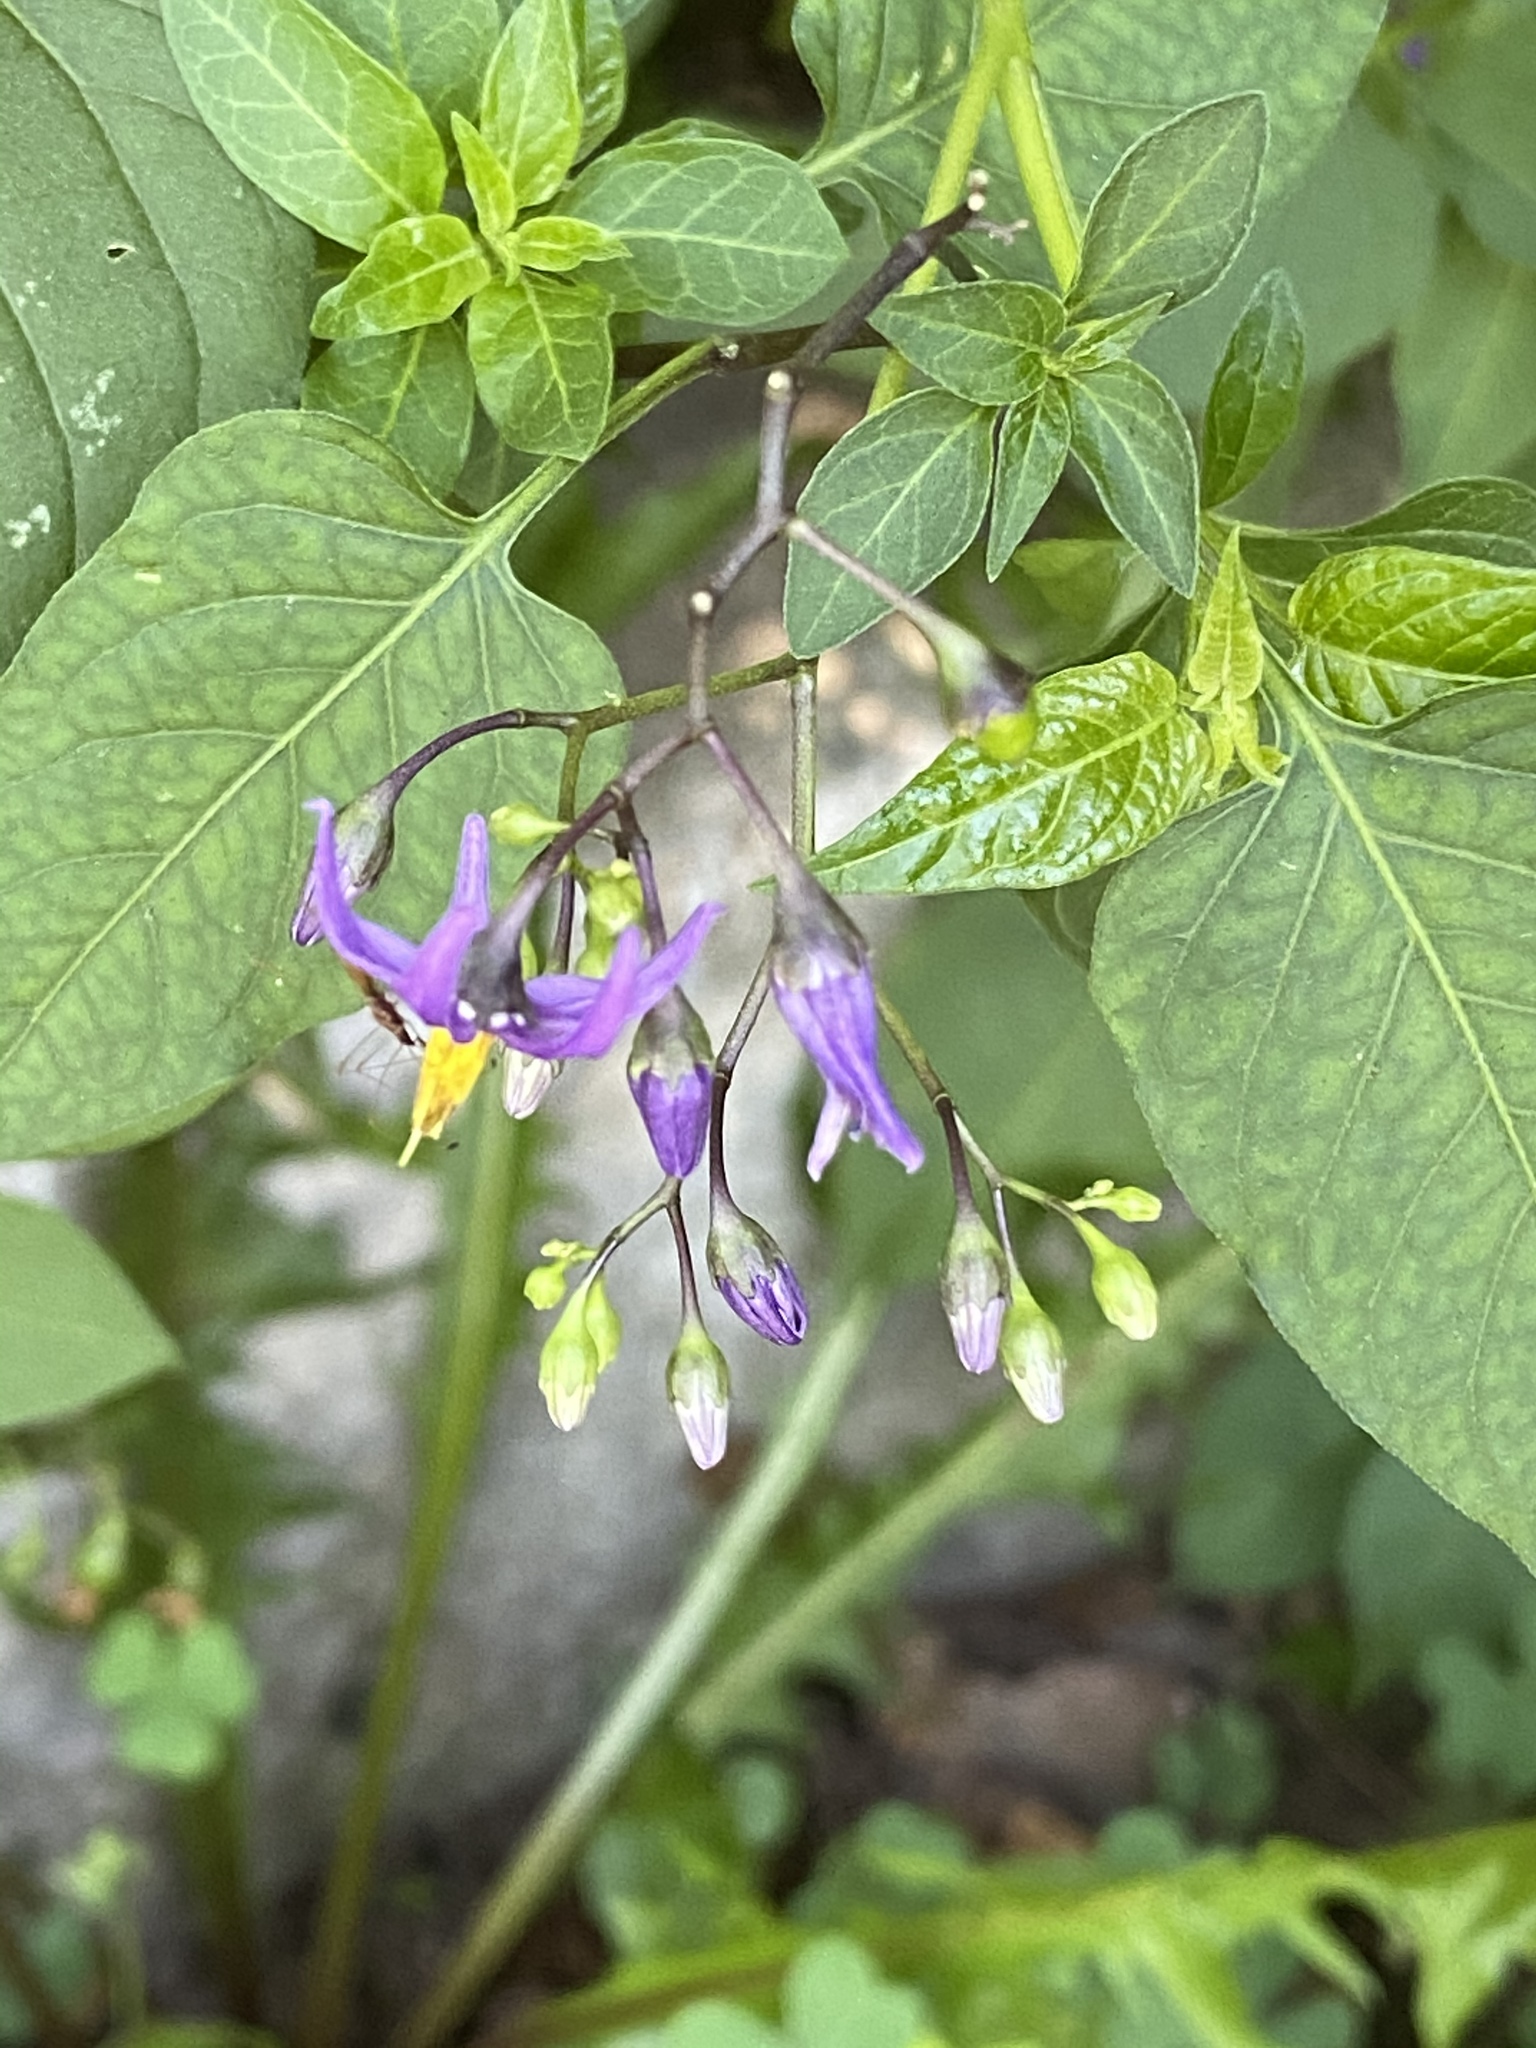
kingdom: Plantae
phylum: Tracheophyta
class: Magnoliopsida
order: Solanales
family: Solanaceae
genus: Solanum
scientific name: Solanum dulcamara
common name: Climbing nightshade
